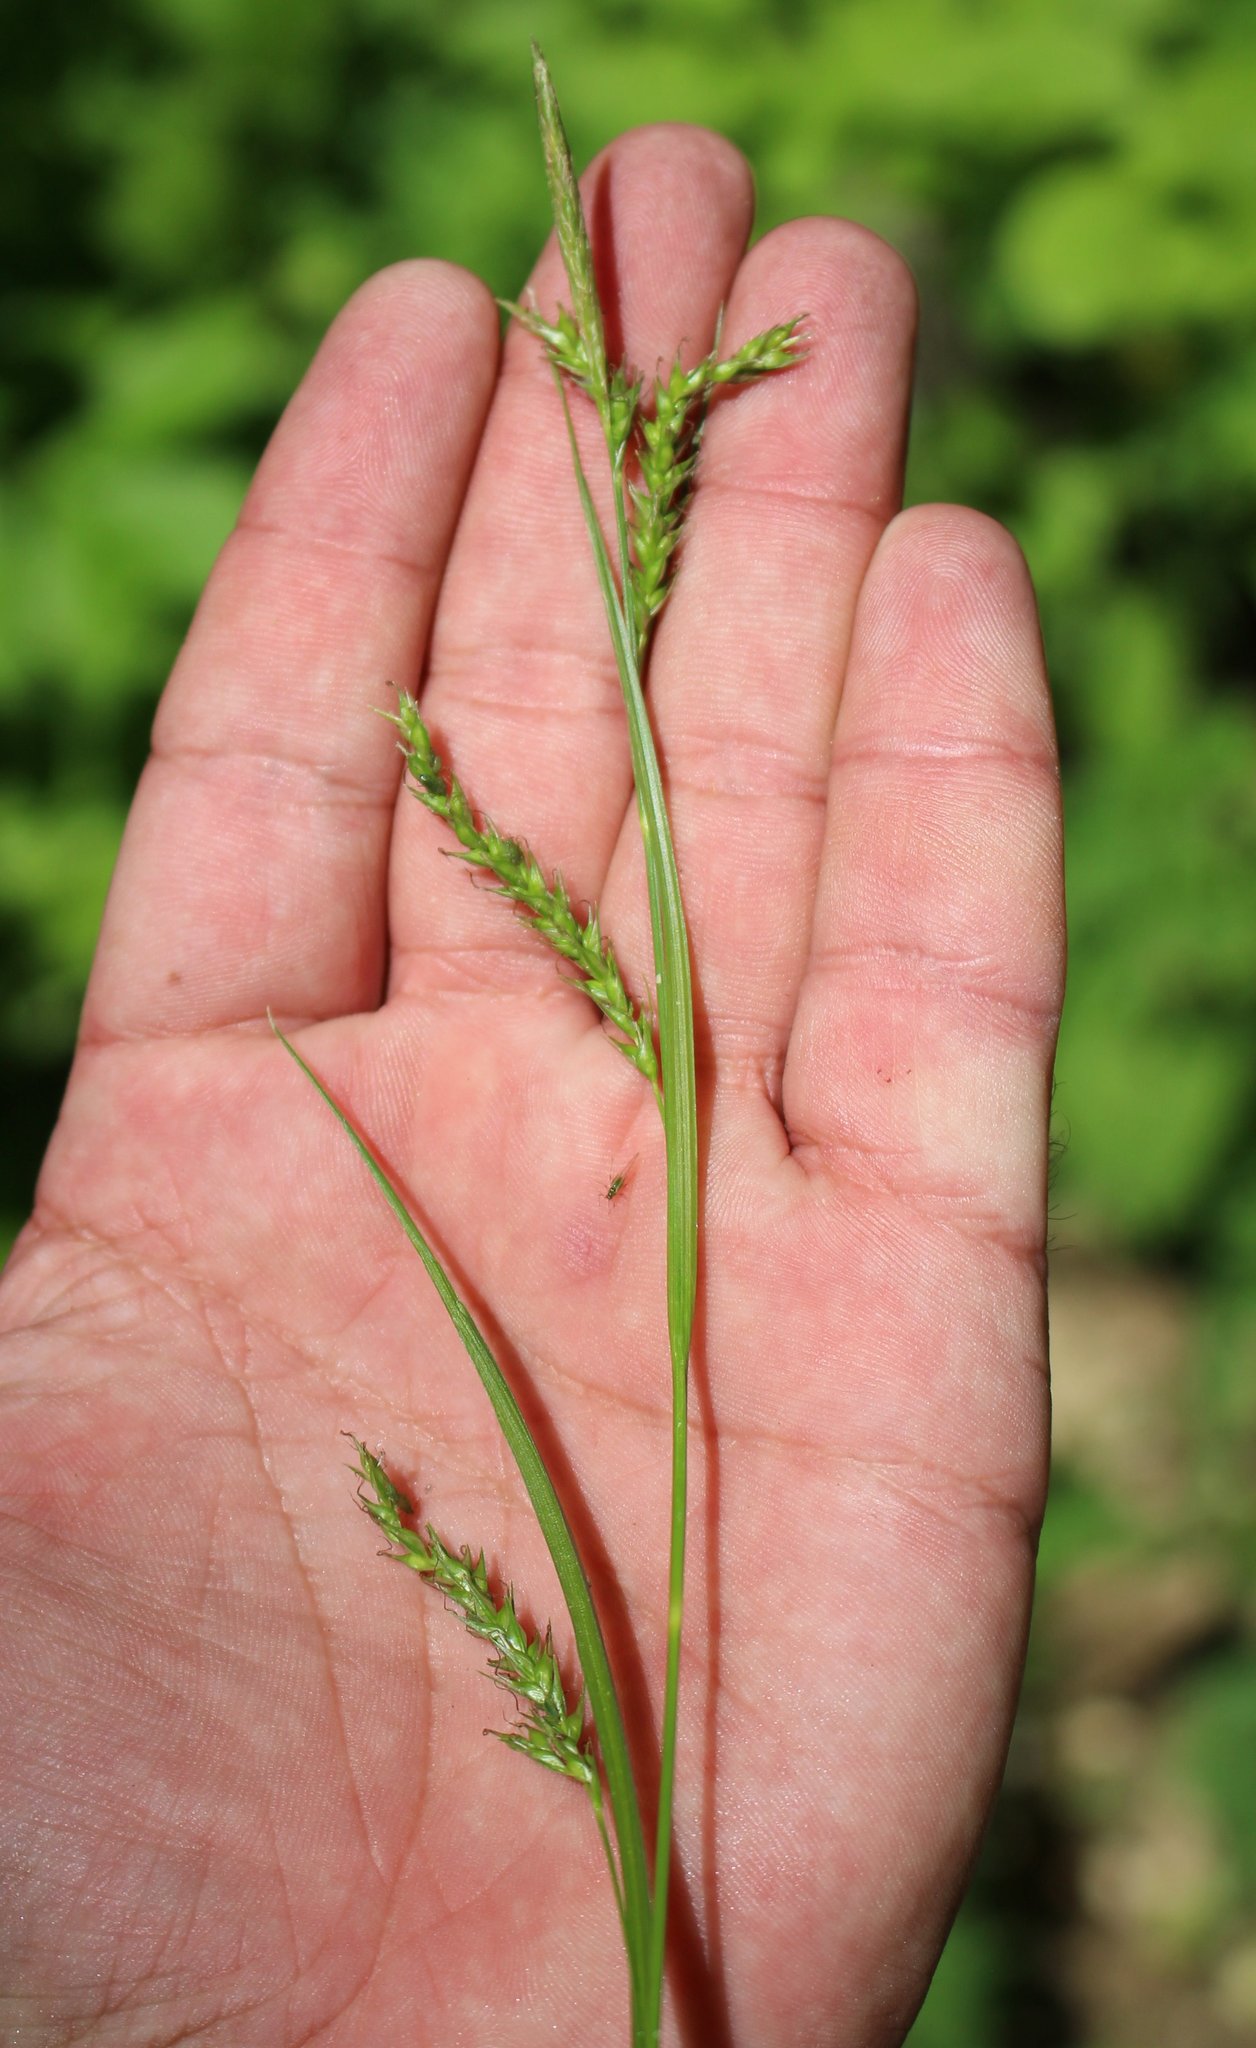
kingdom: Plantae
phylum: Tracheophyta
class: Liliopsida
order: Poales
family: Cyperaceae
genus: Carex
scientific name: Carex sylvatica
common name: Wood-sedge
